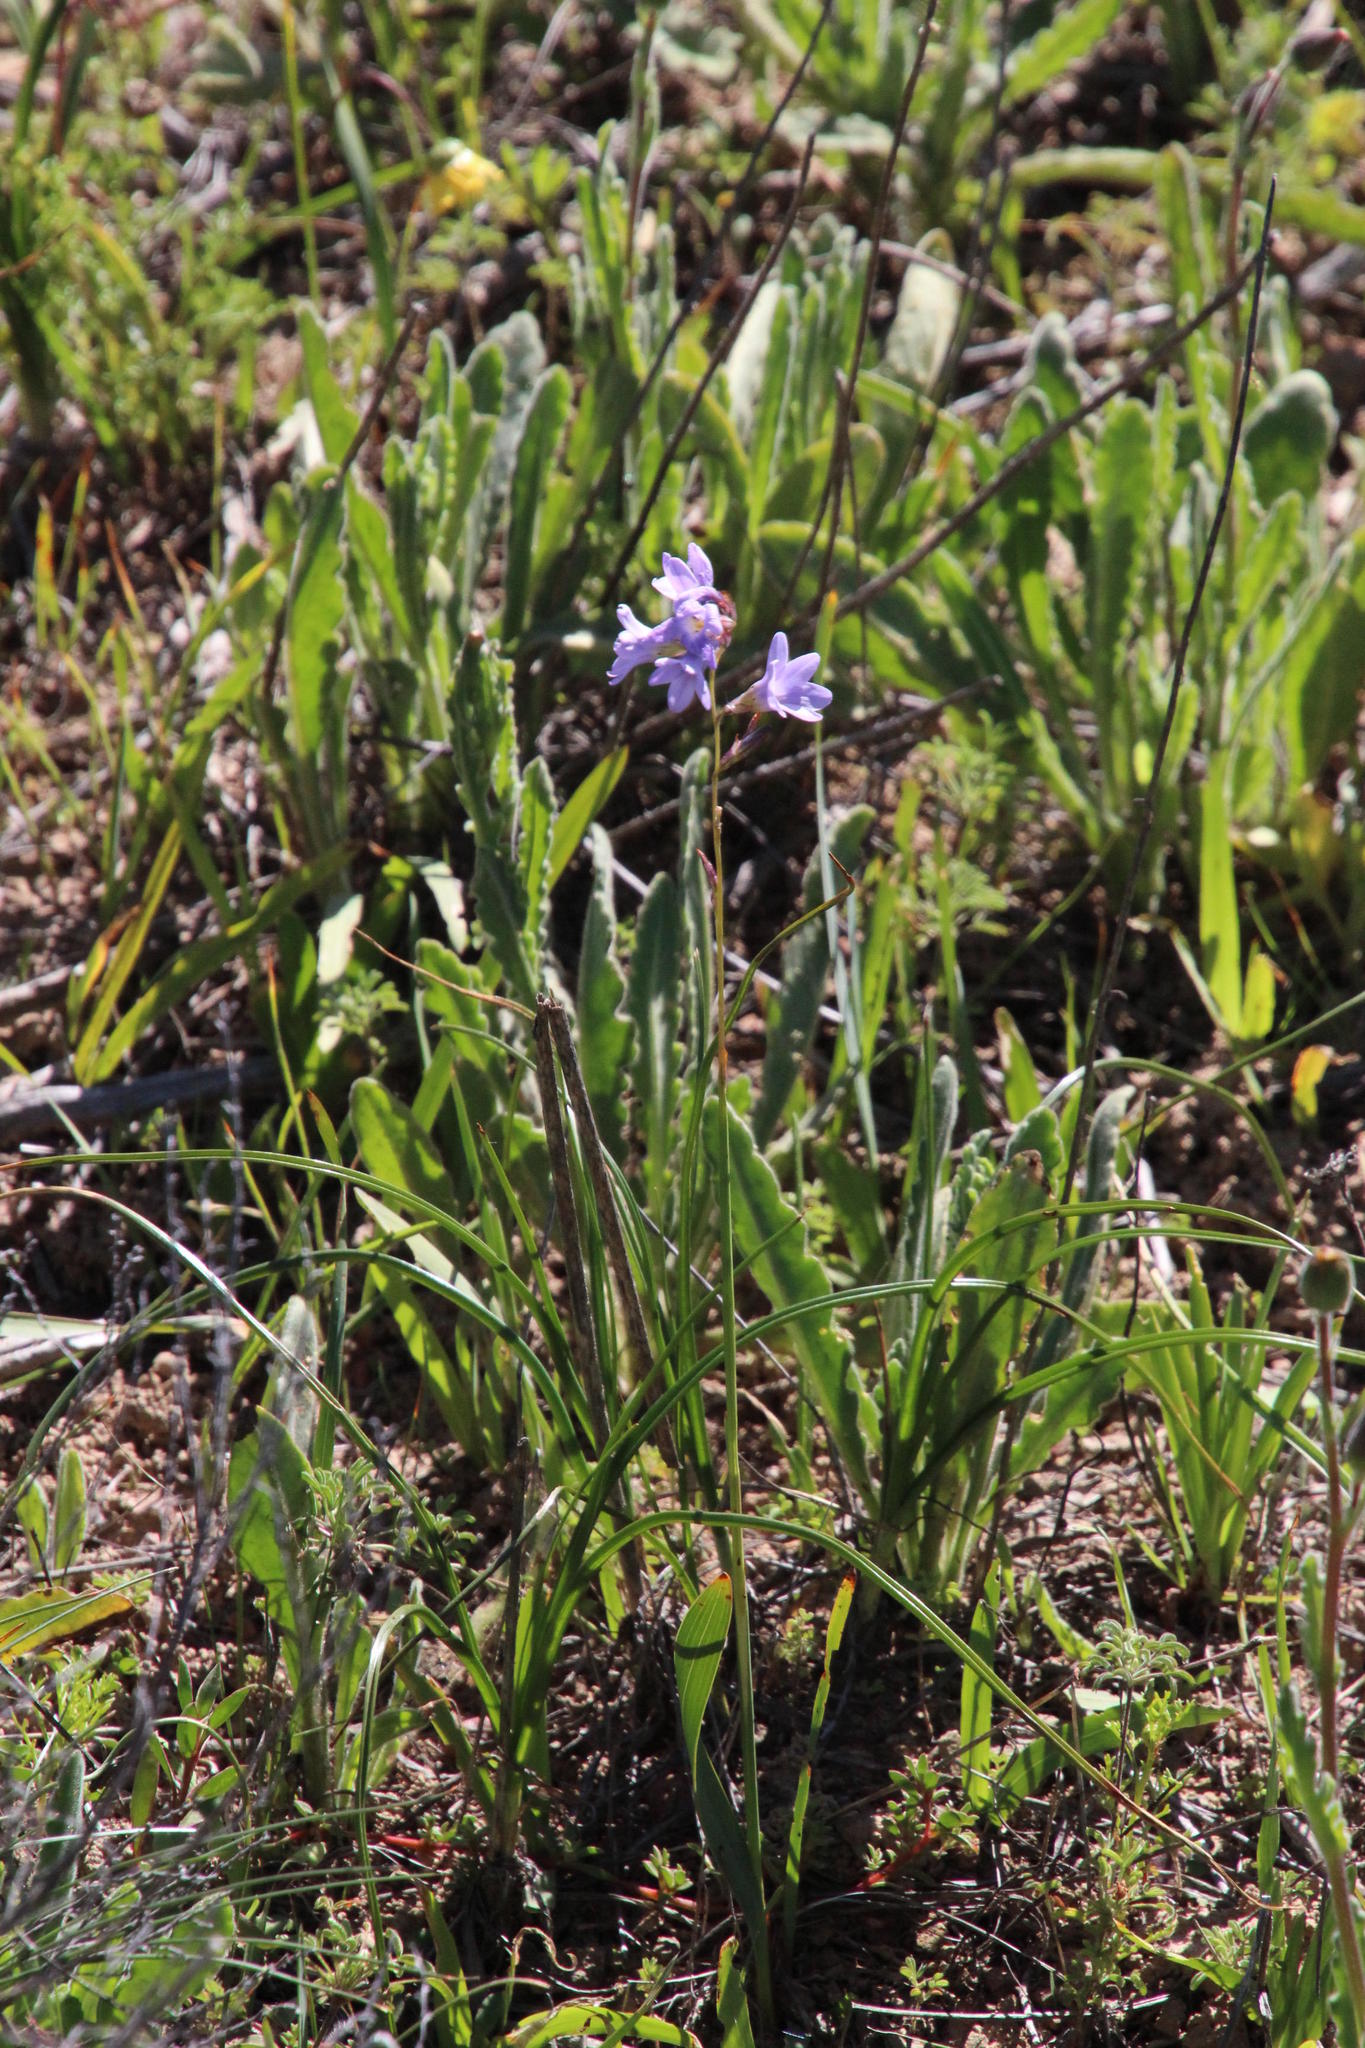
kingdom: Plantae
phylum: Tracheophyta
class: Liliopsida
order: Asparagales
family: Iridaceae
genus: Ixia
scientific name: Ixia rapunculoides
